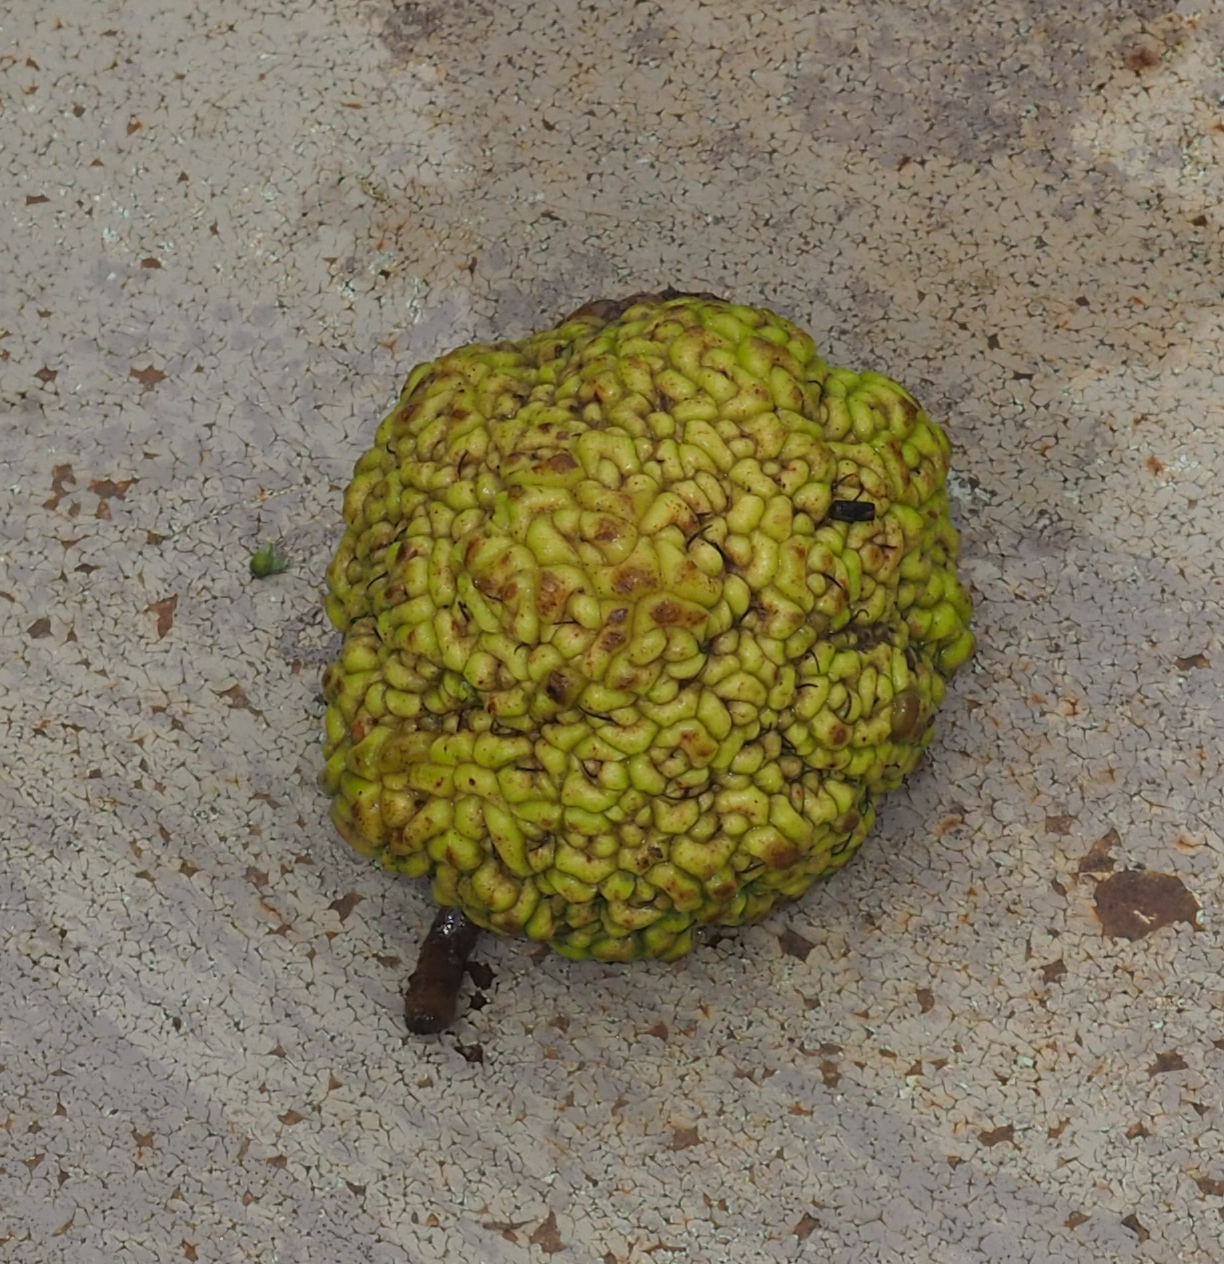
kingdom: Plantae
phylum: Tracheophyta
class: Magnoliopsida
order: Rosales
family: Moraceae
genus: Maclura
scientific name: Maclura pomifera
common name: Osage-orange
